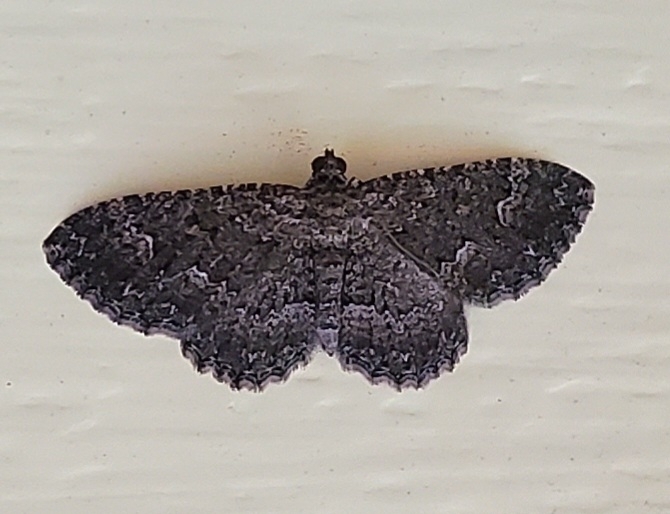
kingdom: Animalia
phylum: Arthropoda
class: Insecta
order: Lepidoptera
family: Geometridae
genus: Disclisioprocta
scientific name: Disclisioprocta stellata
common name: Somber carpet
